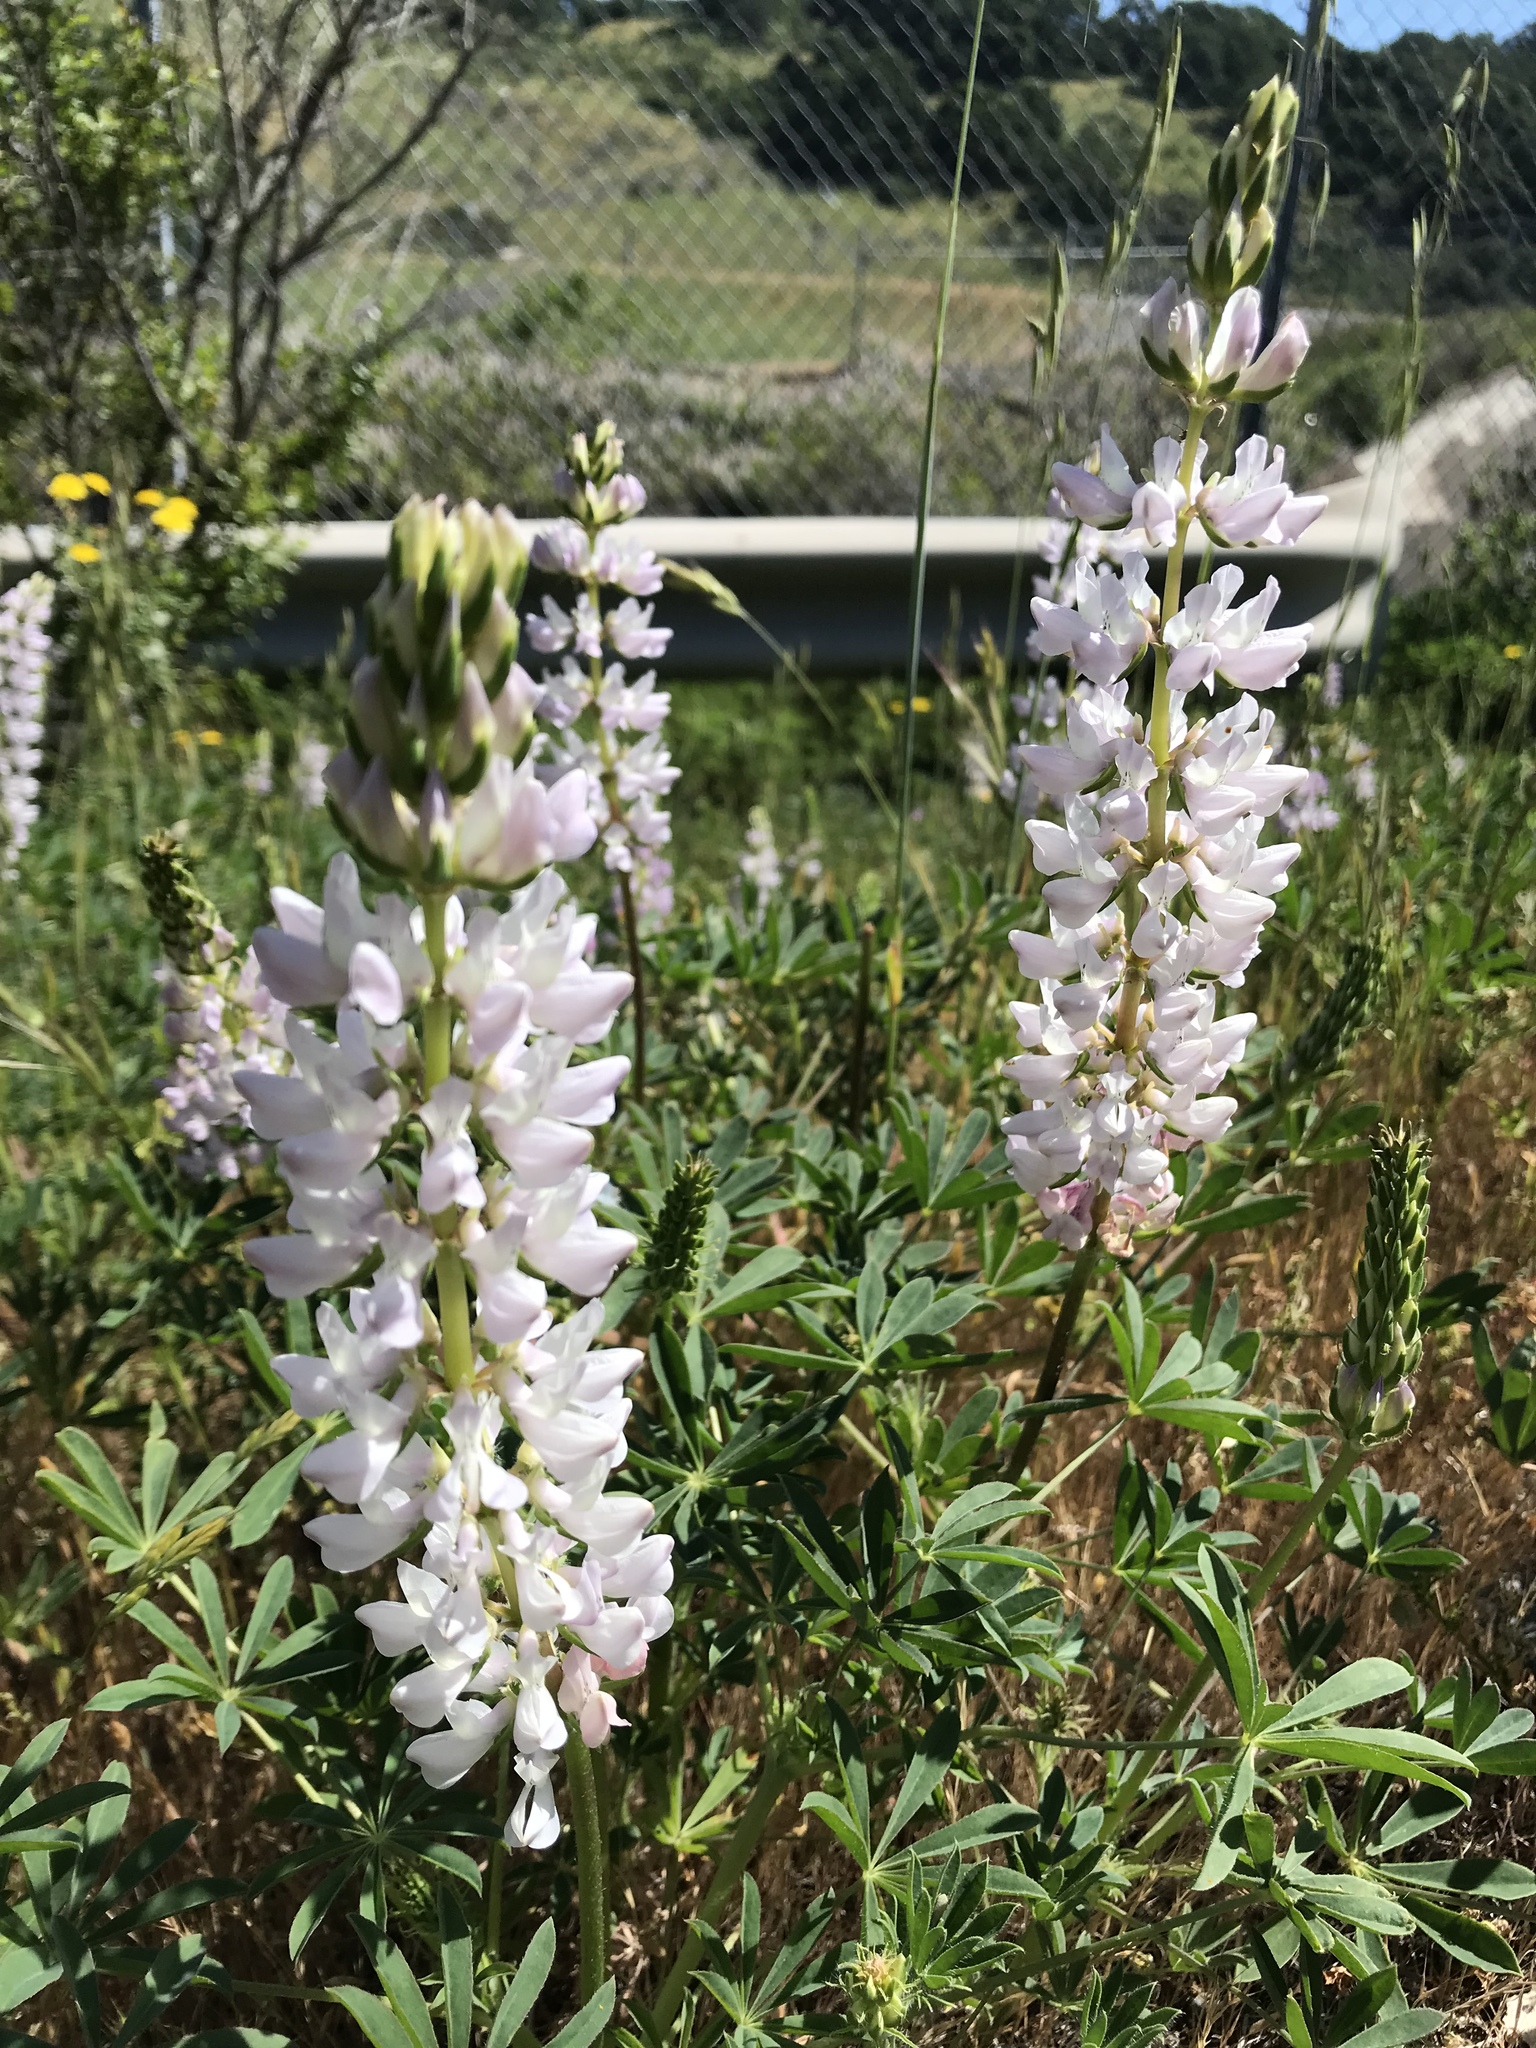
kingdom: Plantae
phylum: Tracheophyta
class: Magnoliopsida
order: Fabales
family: Fabaceae
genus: Lupinus
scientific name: Lupinus microcarpus
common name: Chick lupine
